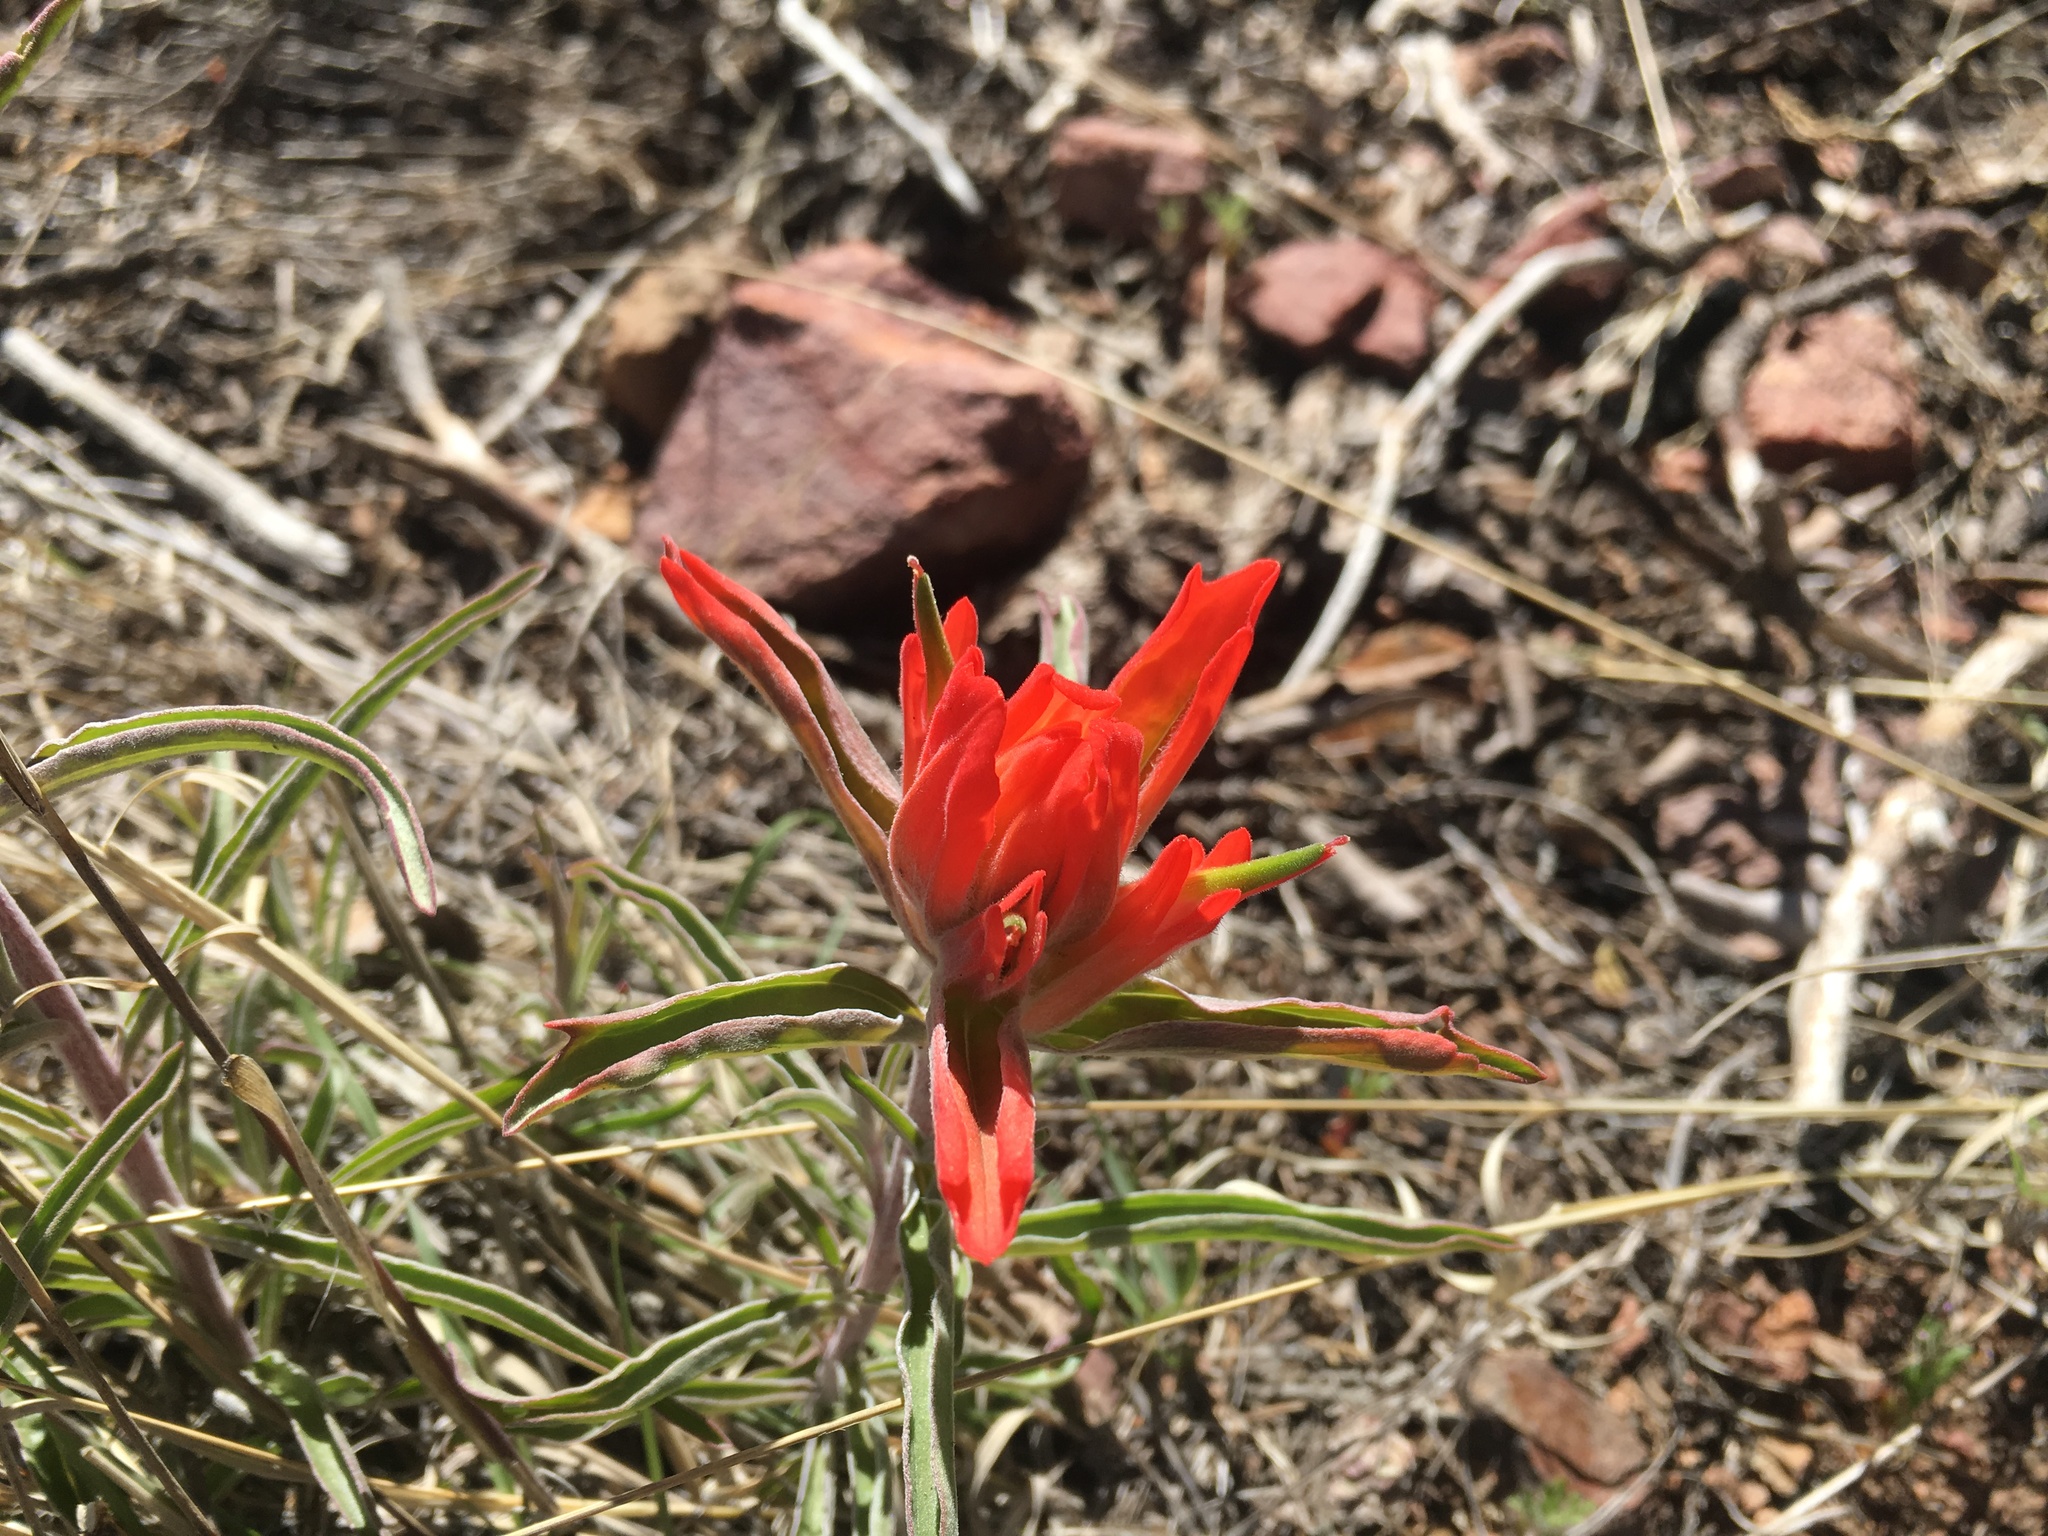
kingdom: Plantae
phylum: Tracheophyta
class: Magnoliopsida
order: Lamiales
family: Orobanchaceae
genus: Castilleja
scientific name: Castilleja integra
